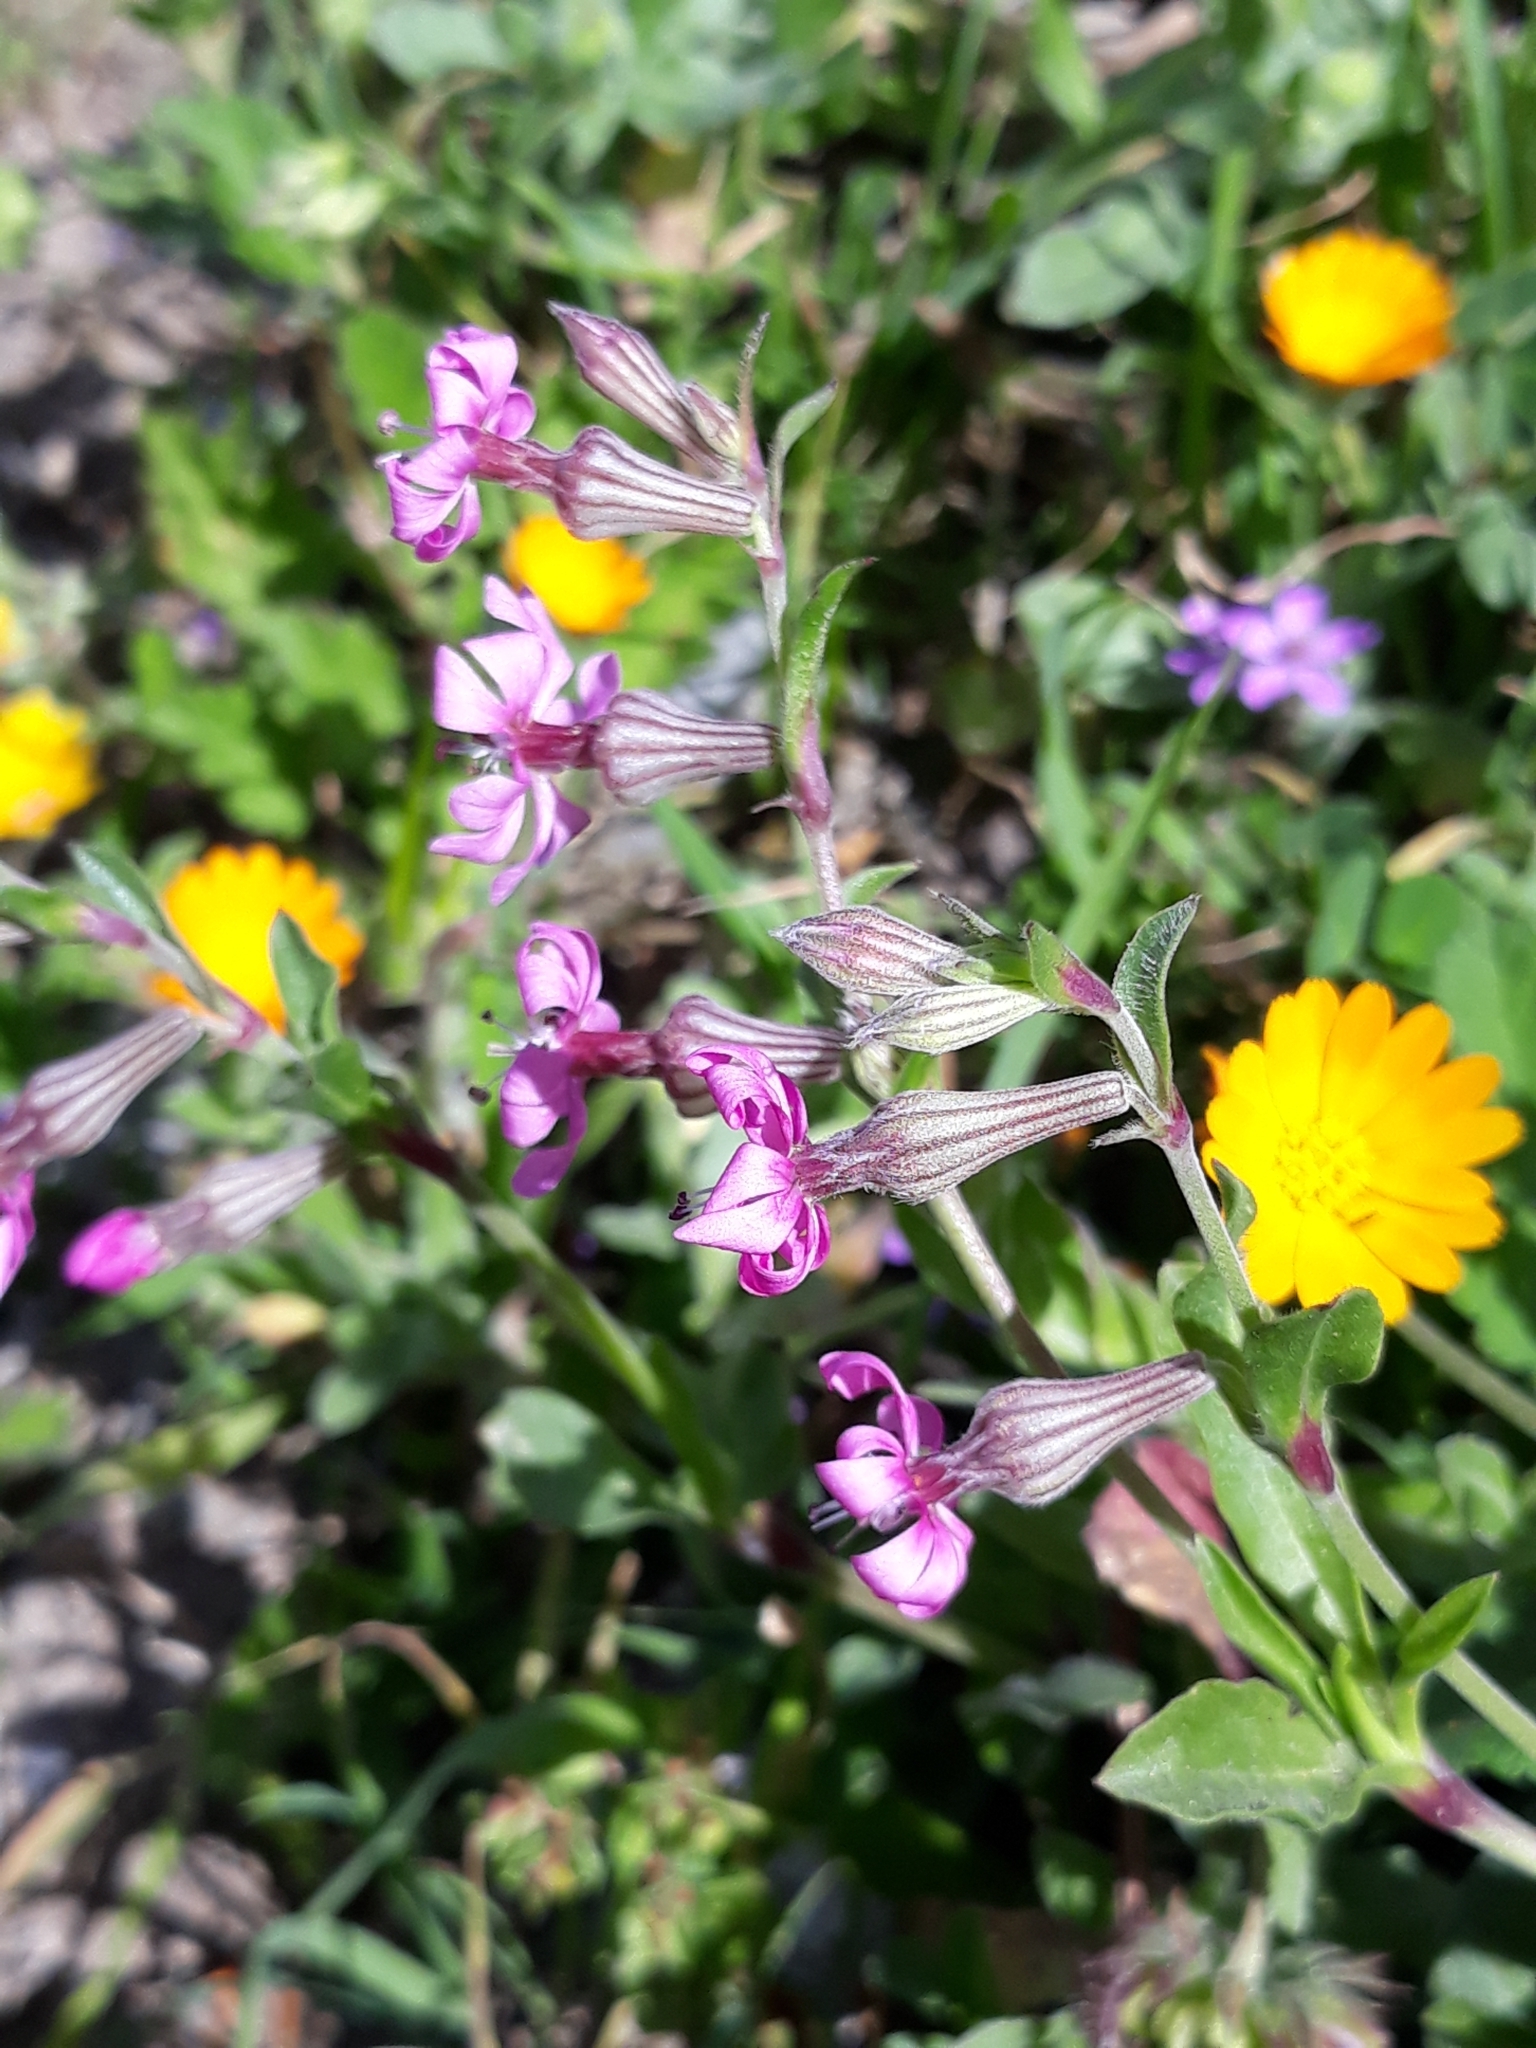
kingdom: Plantae
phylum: Tracheophyta
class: Magnoliopsida
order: Caryophyllales
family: Caryophyllaceae
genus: Silene
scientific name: Silene colorata
